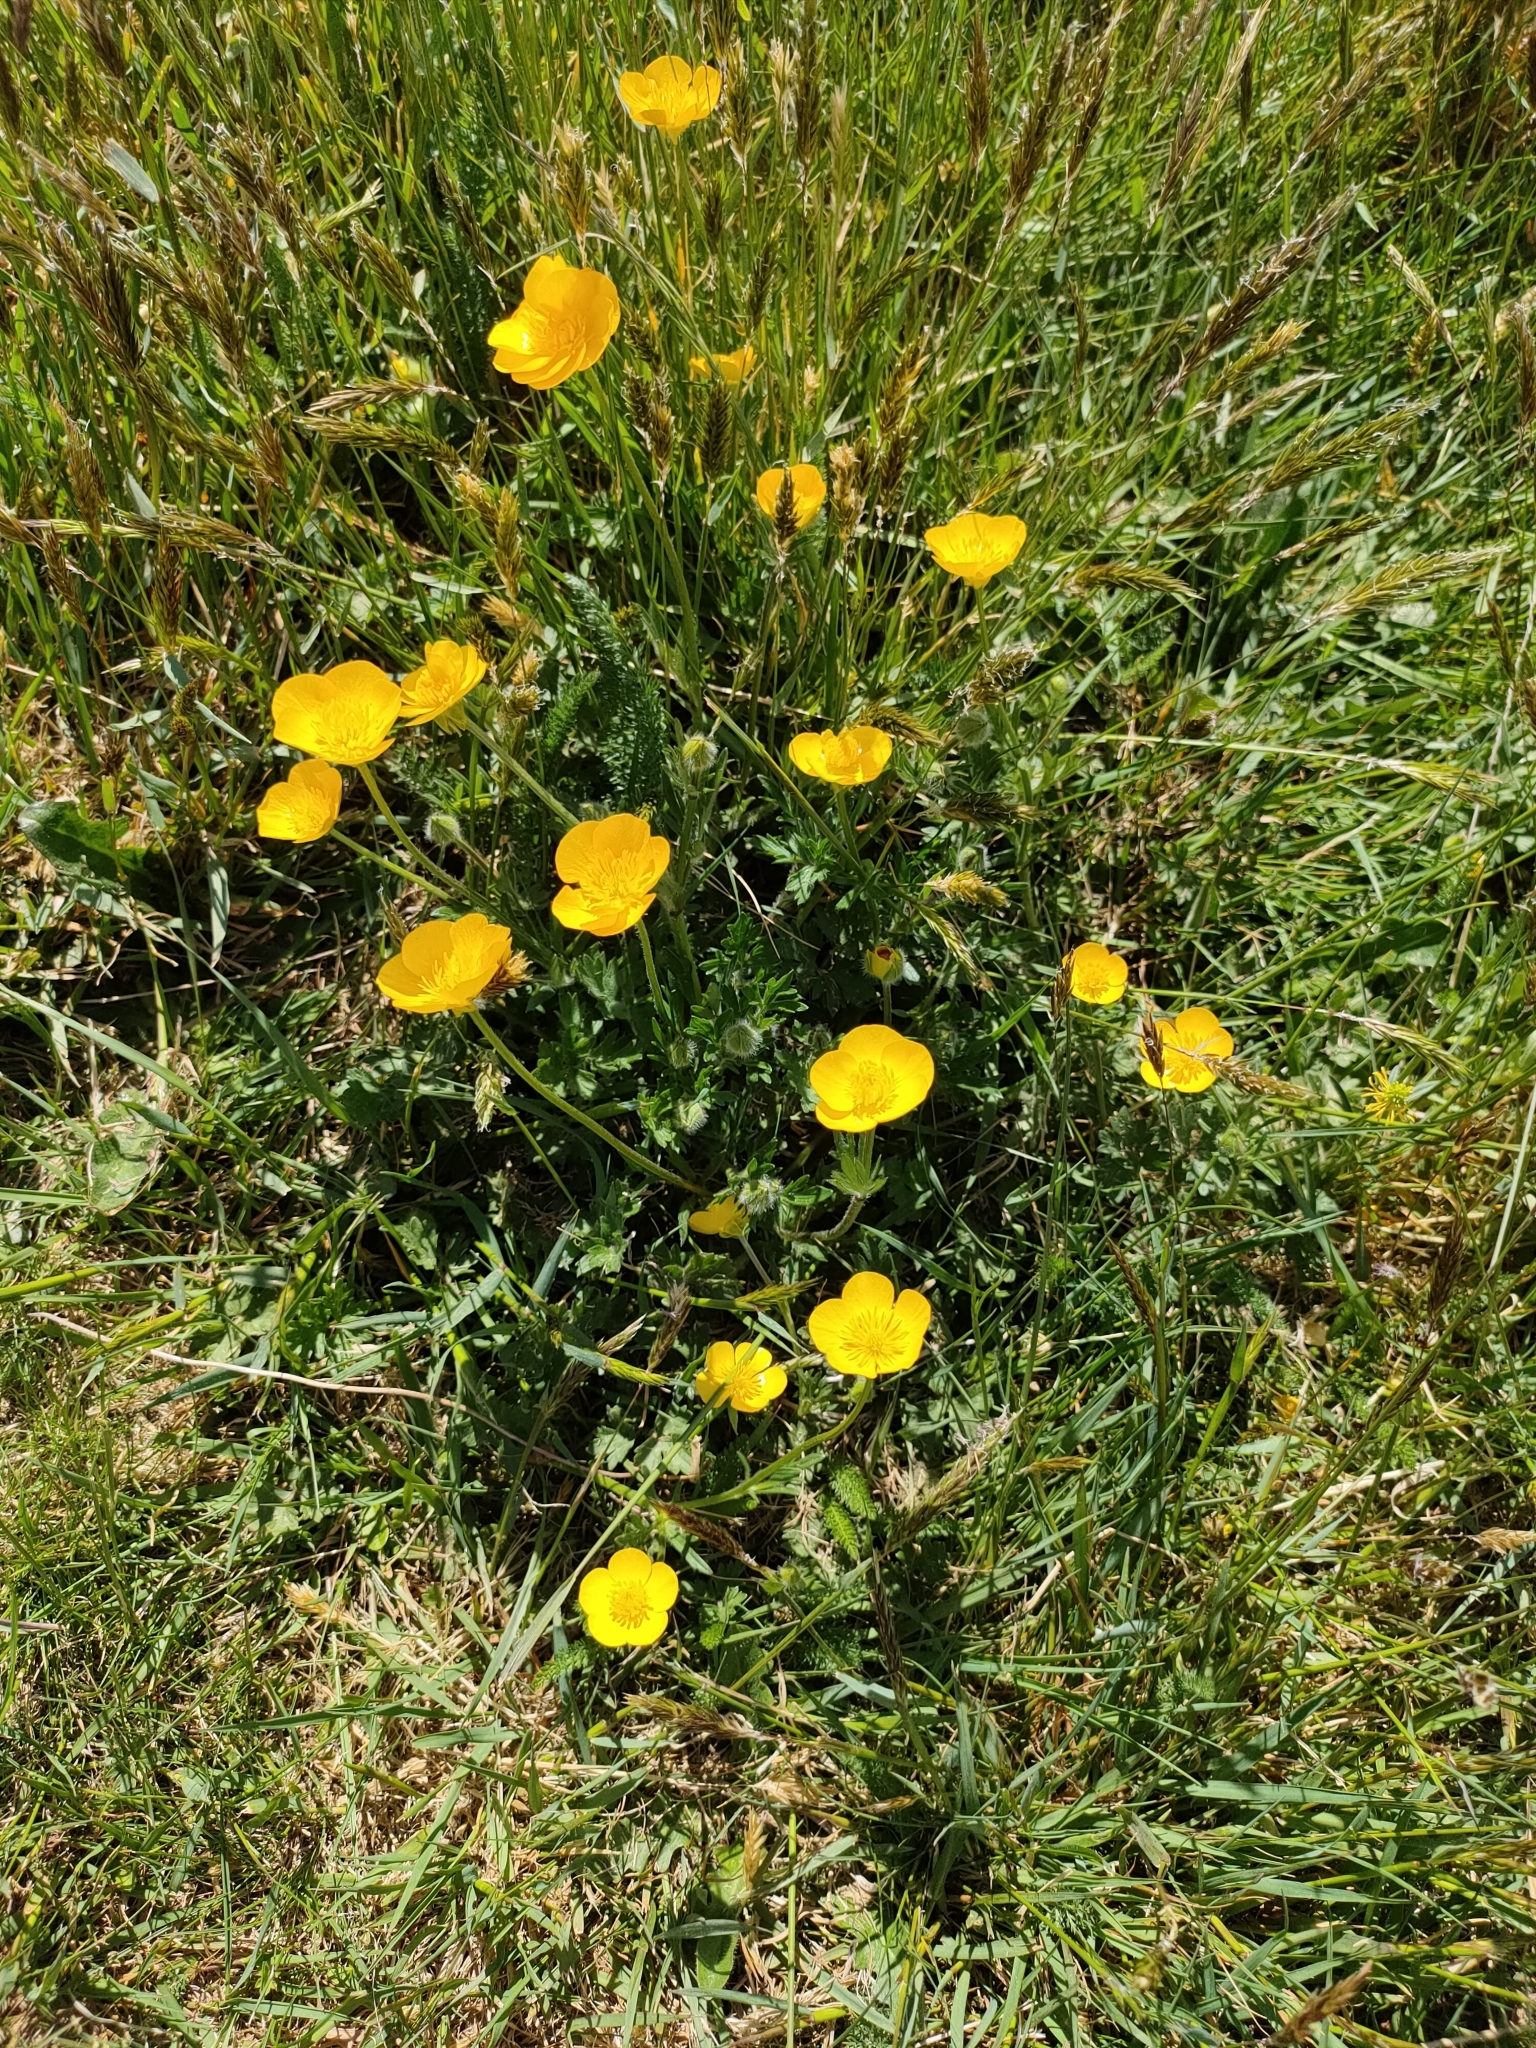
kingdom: Plantae
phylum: Tracheophyta
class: Magnoliopsida
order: Ranunculales
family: Ranunculaceae
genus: Ranunculus
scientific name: Ranunculus repens
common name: Creeping buttercup
